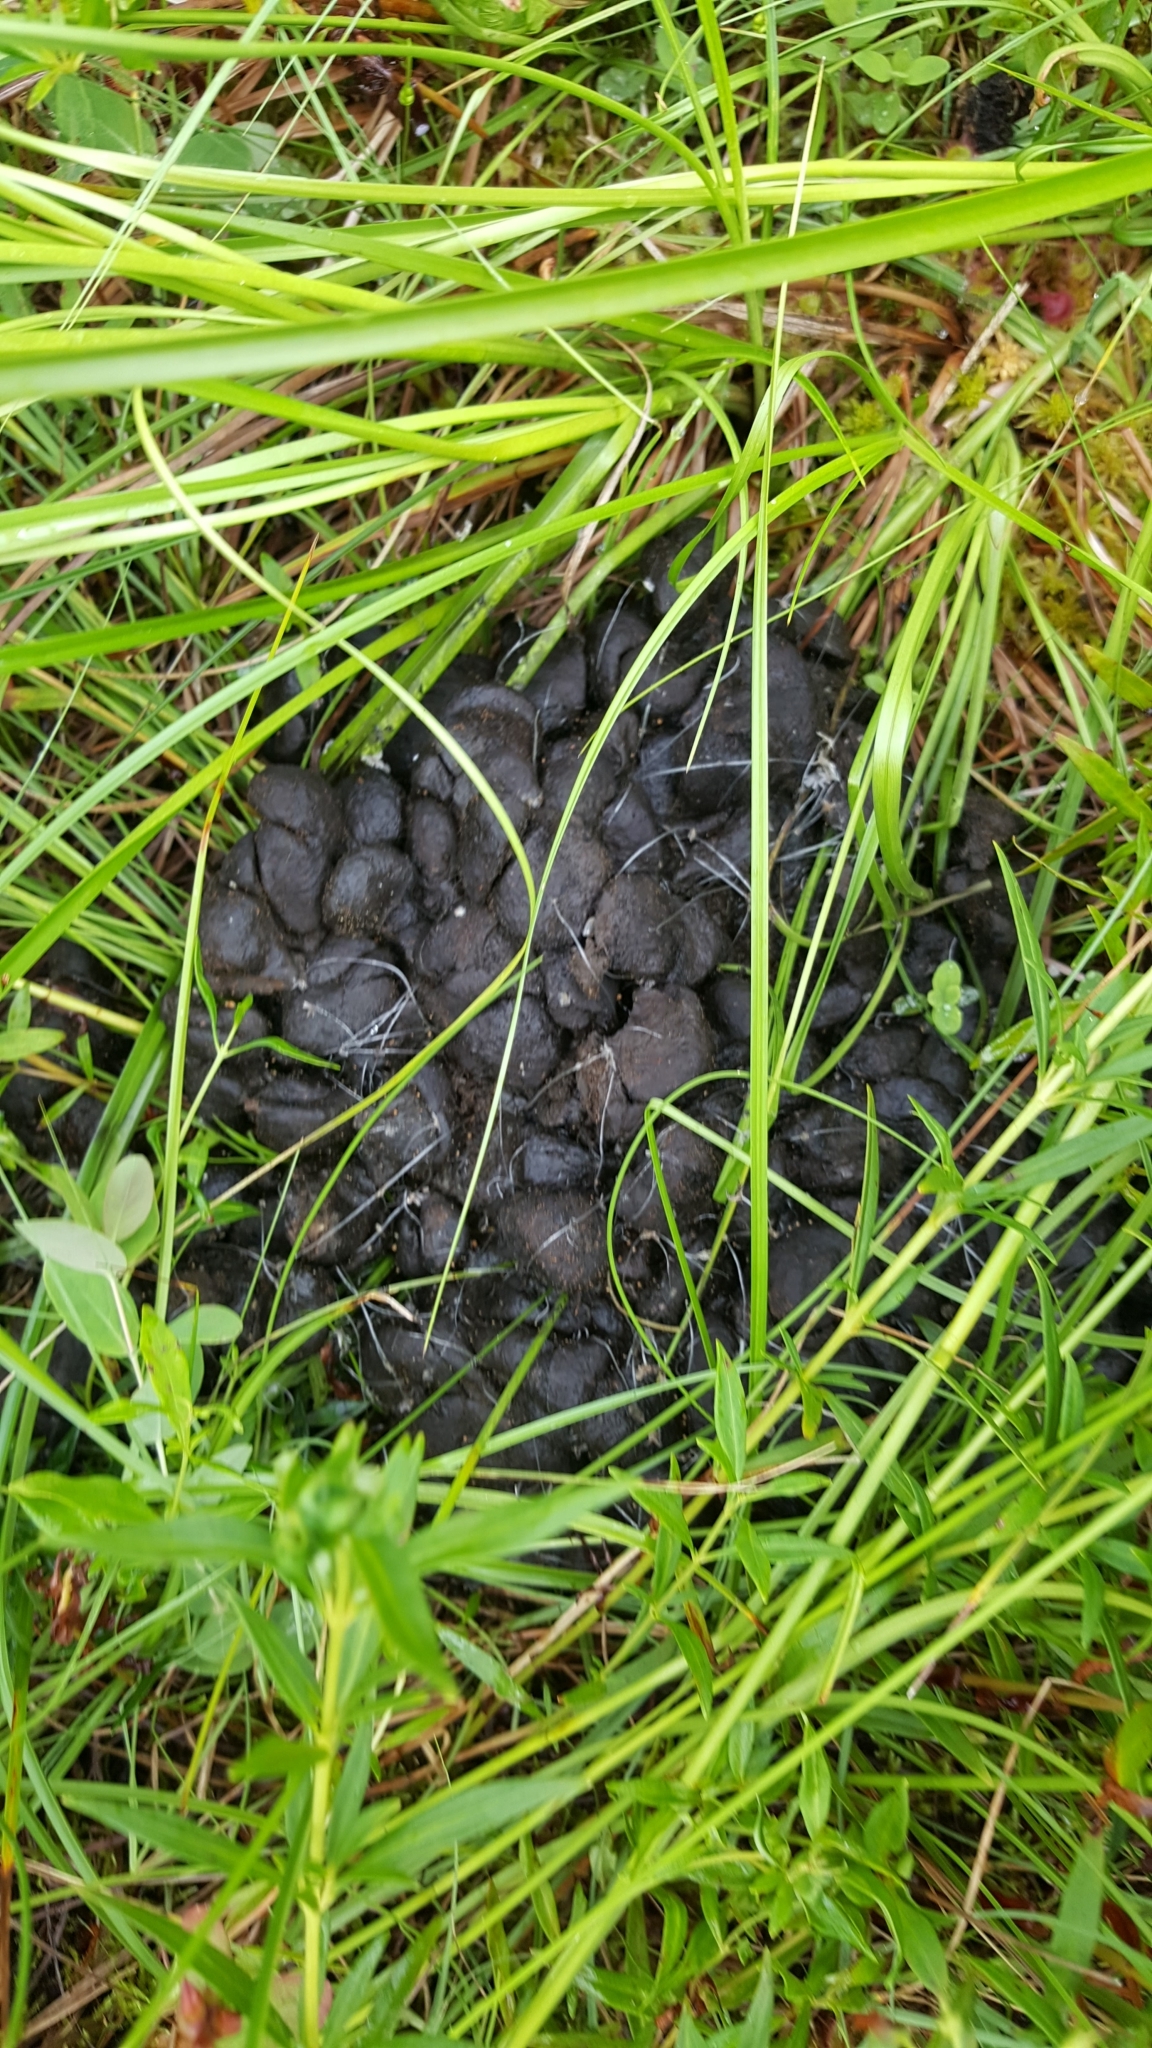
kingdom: Animalia
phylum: Chordata
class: Mammalia
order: Artiodactyla
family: Cervidae
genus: Alces
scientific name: Alces alces
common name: Moose
